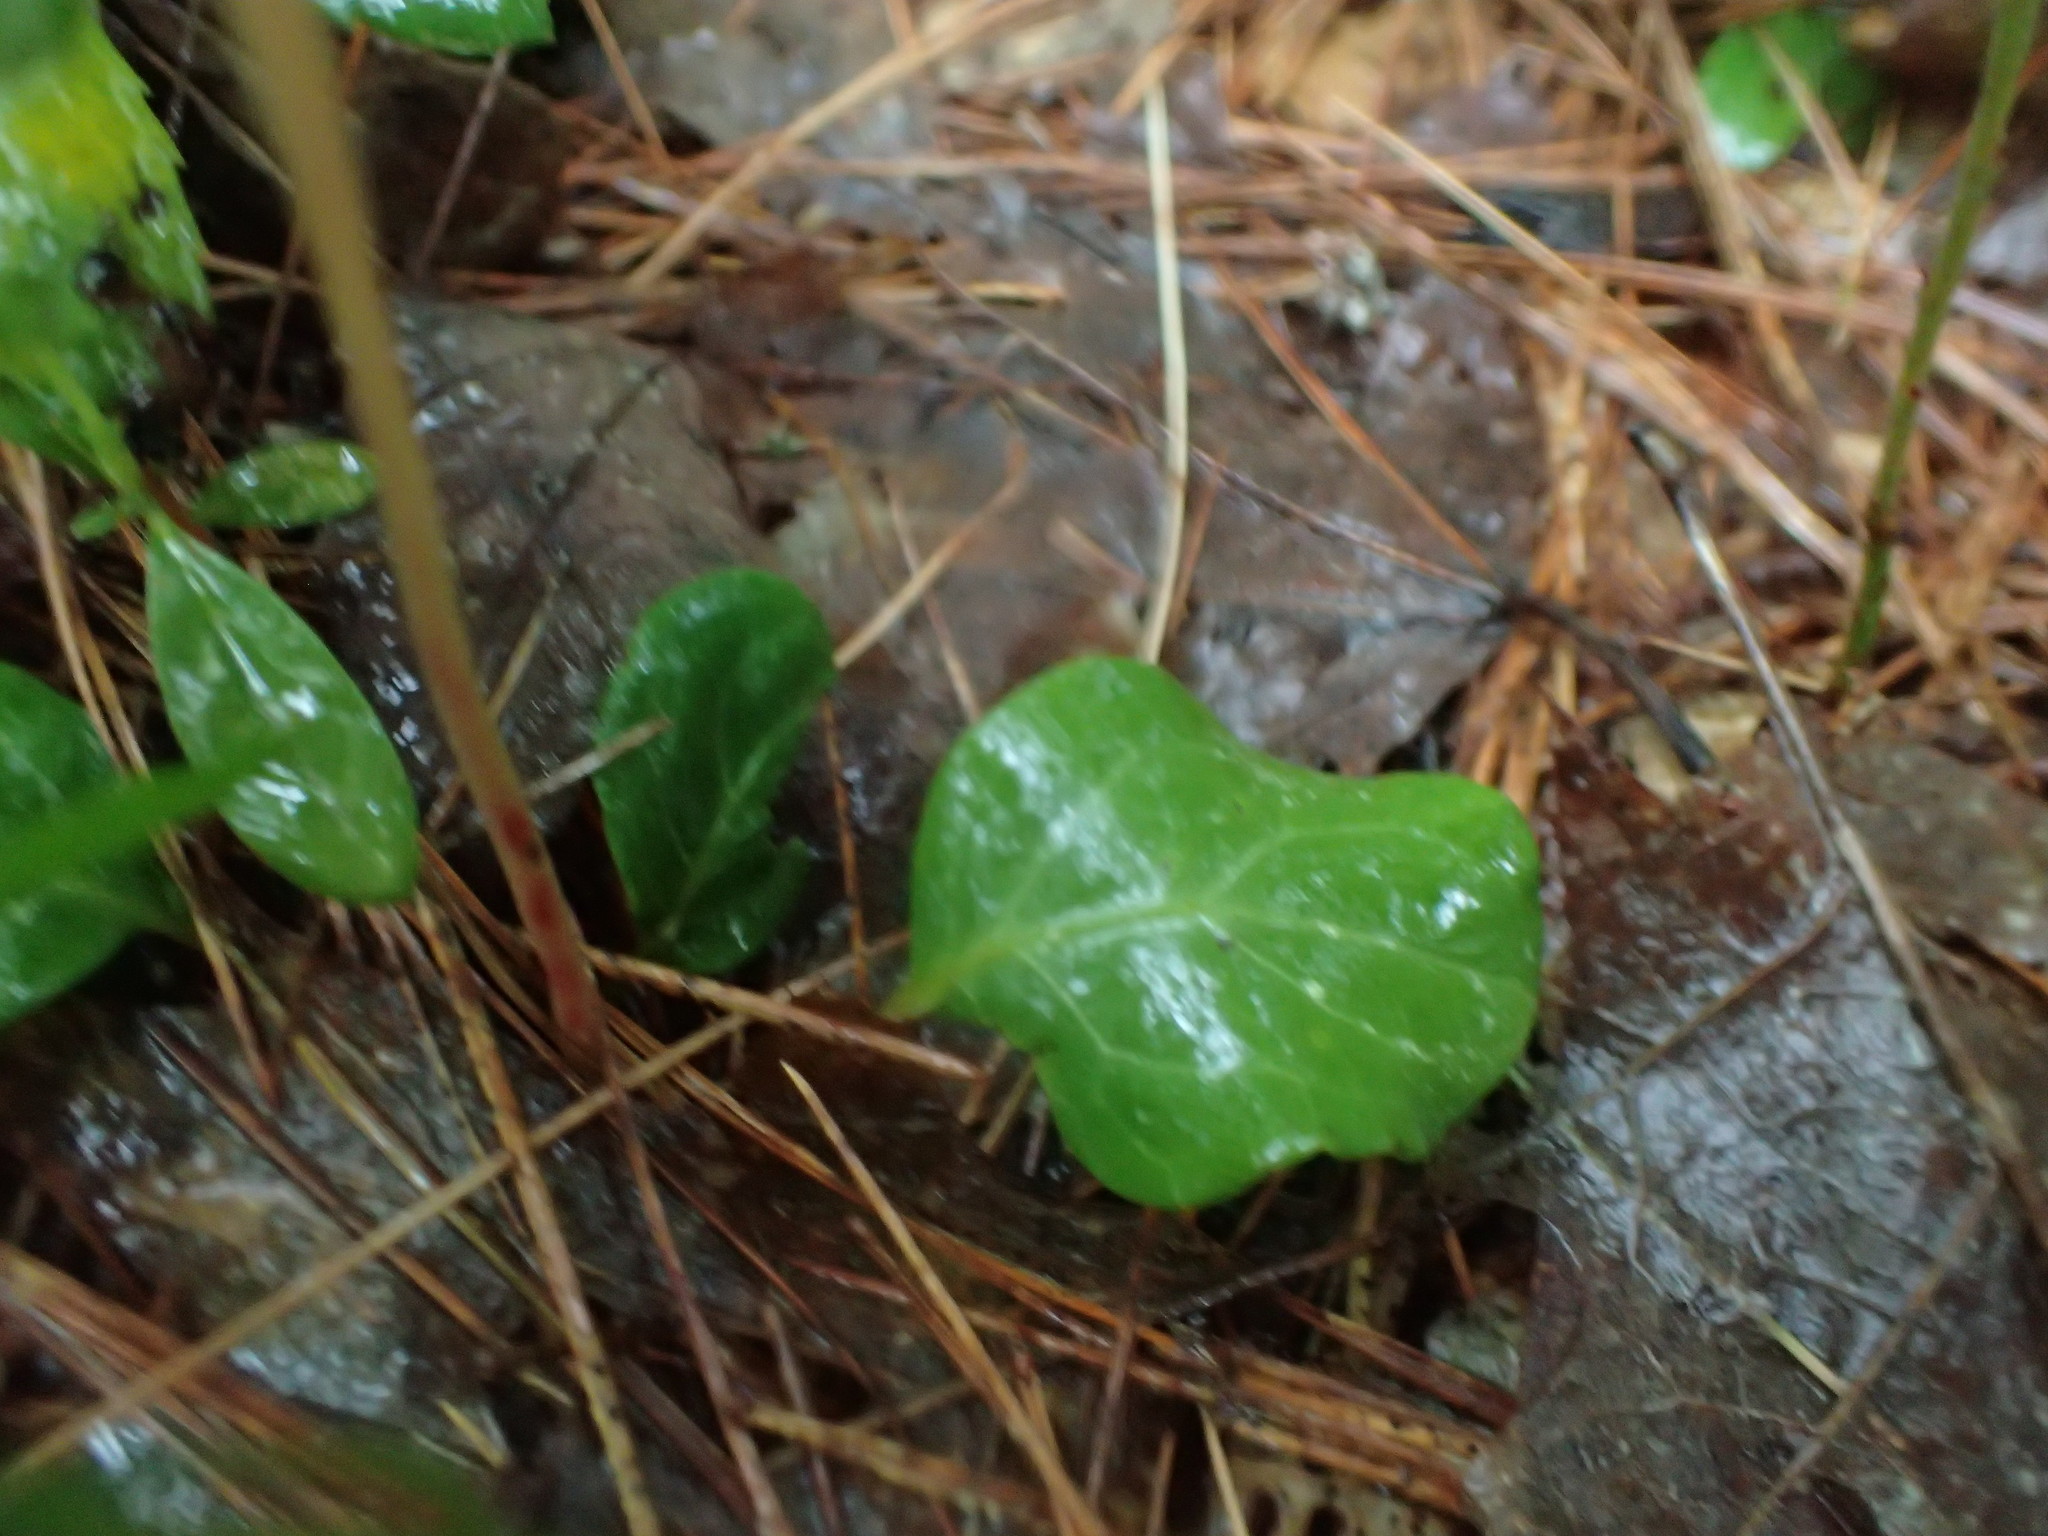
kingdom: Plantae
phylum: Tracheophyta
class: Magnoliopsida
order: Ericales
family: Ericaceae
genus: Pyrola
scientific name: Pyrola chlorantha
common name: Green wintergreen
